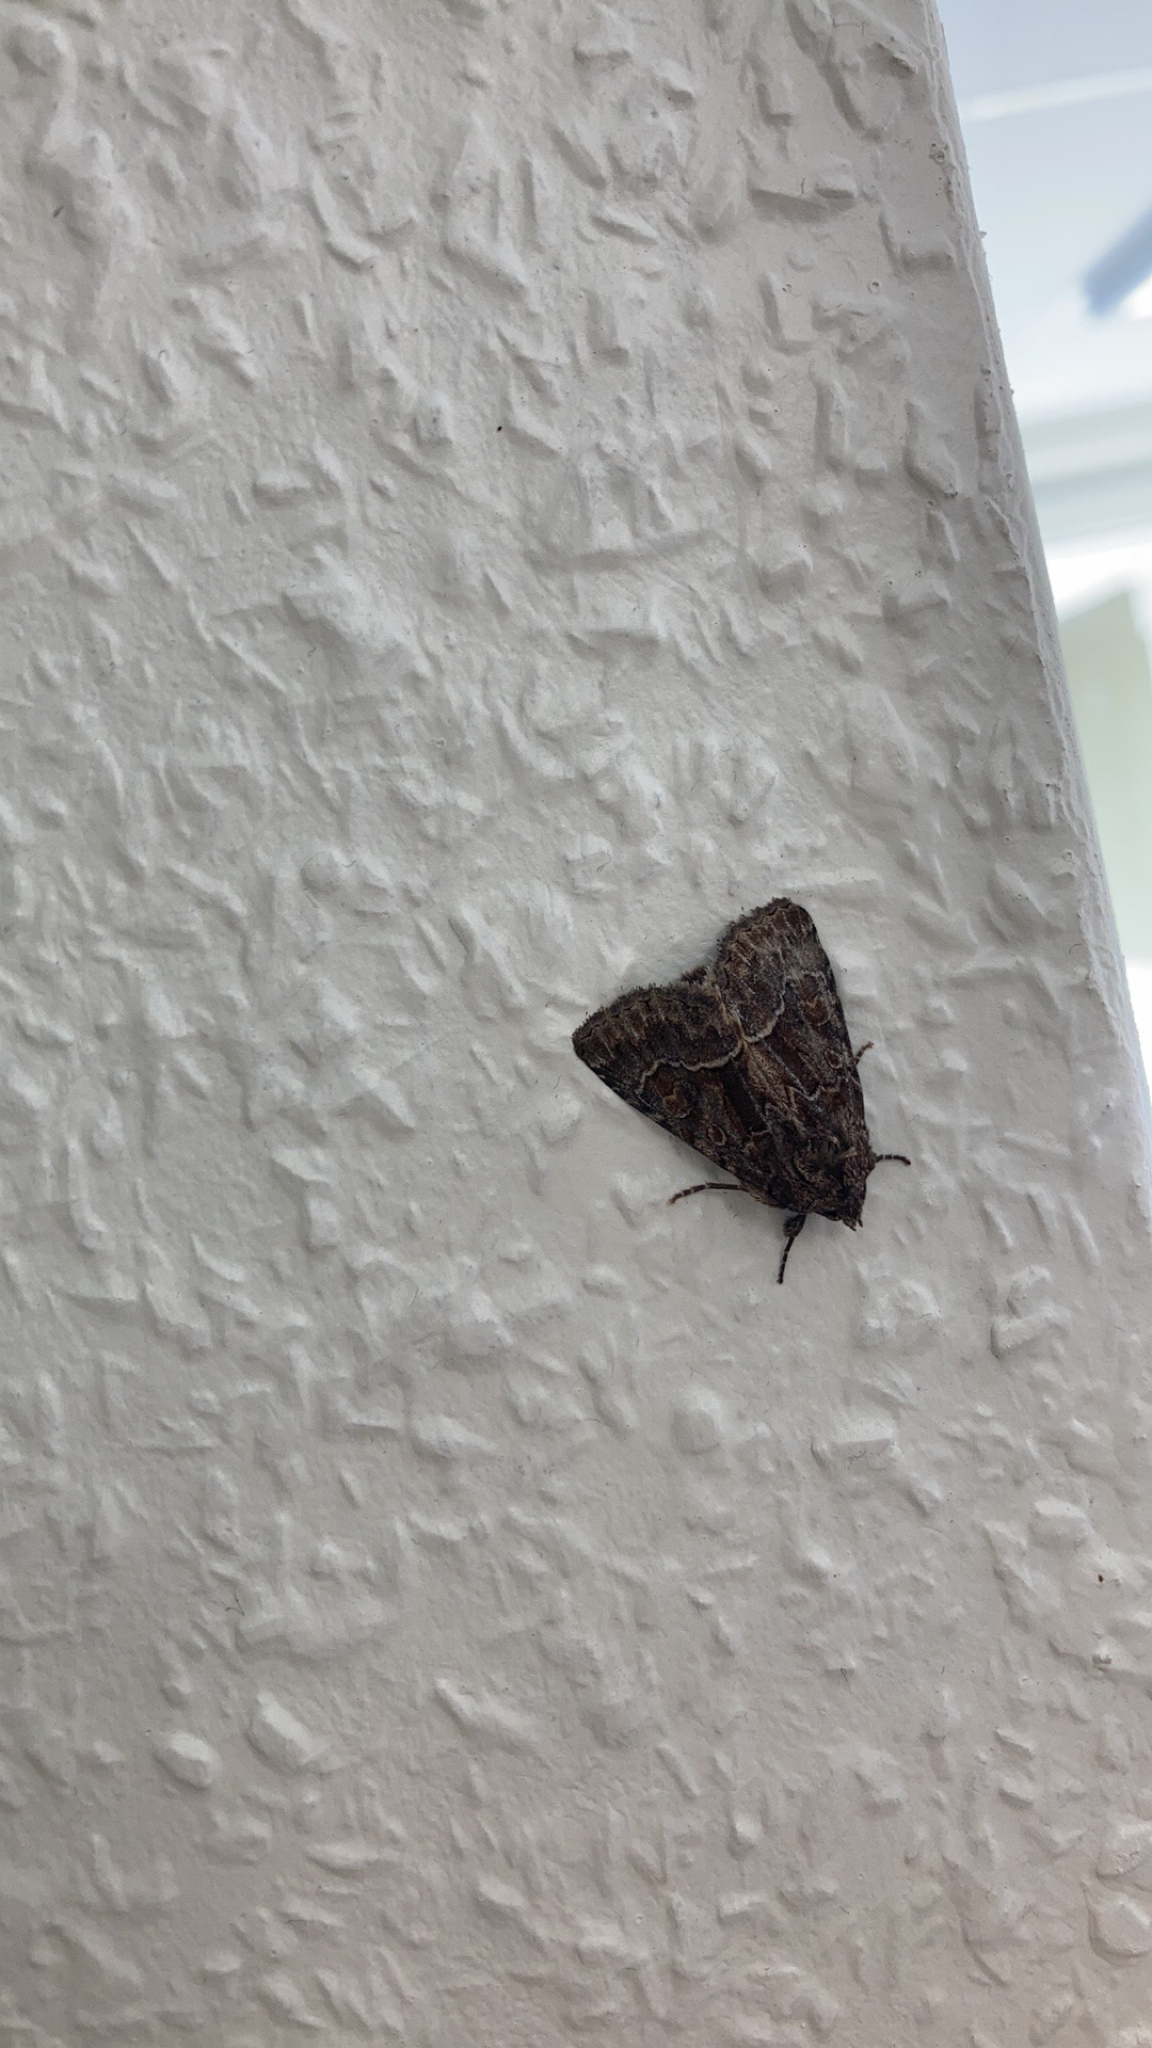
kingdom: Animalia
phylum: Arthropoda
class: Insecta
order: Lepidoptera
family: Noctuidae
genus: Thalpophila
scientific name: Thalpophila matura
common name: Straw underwing
